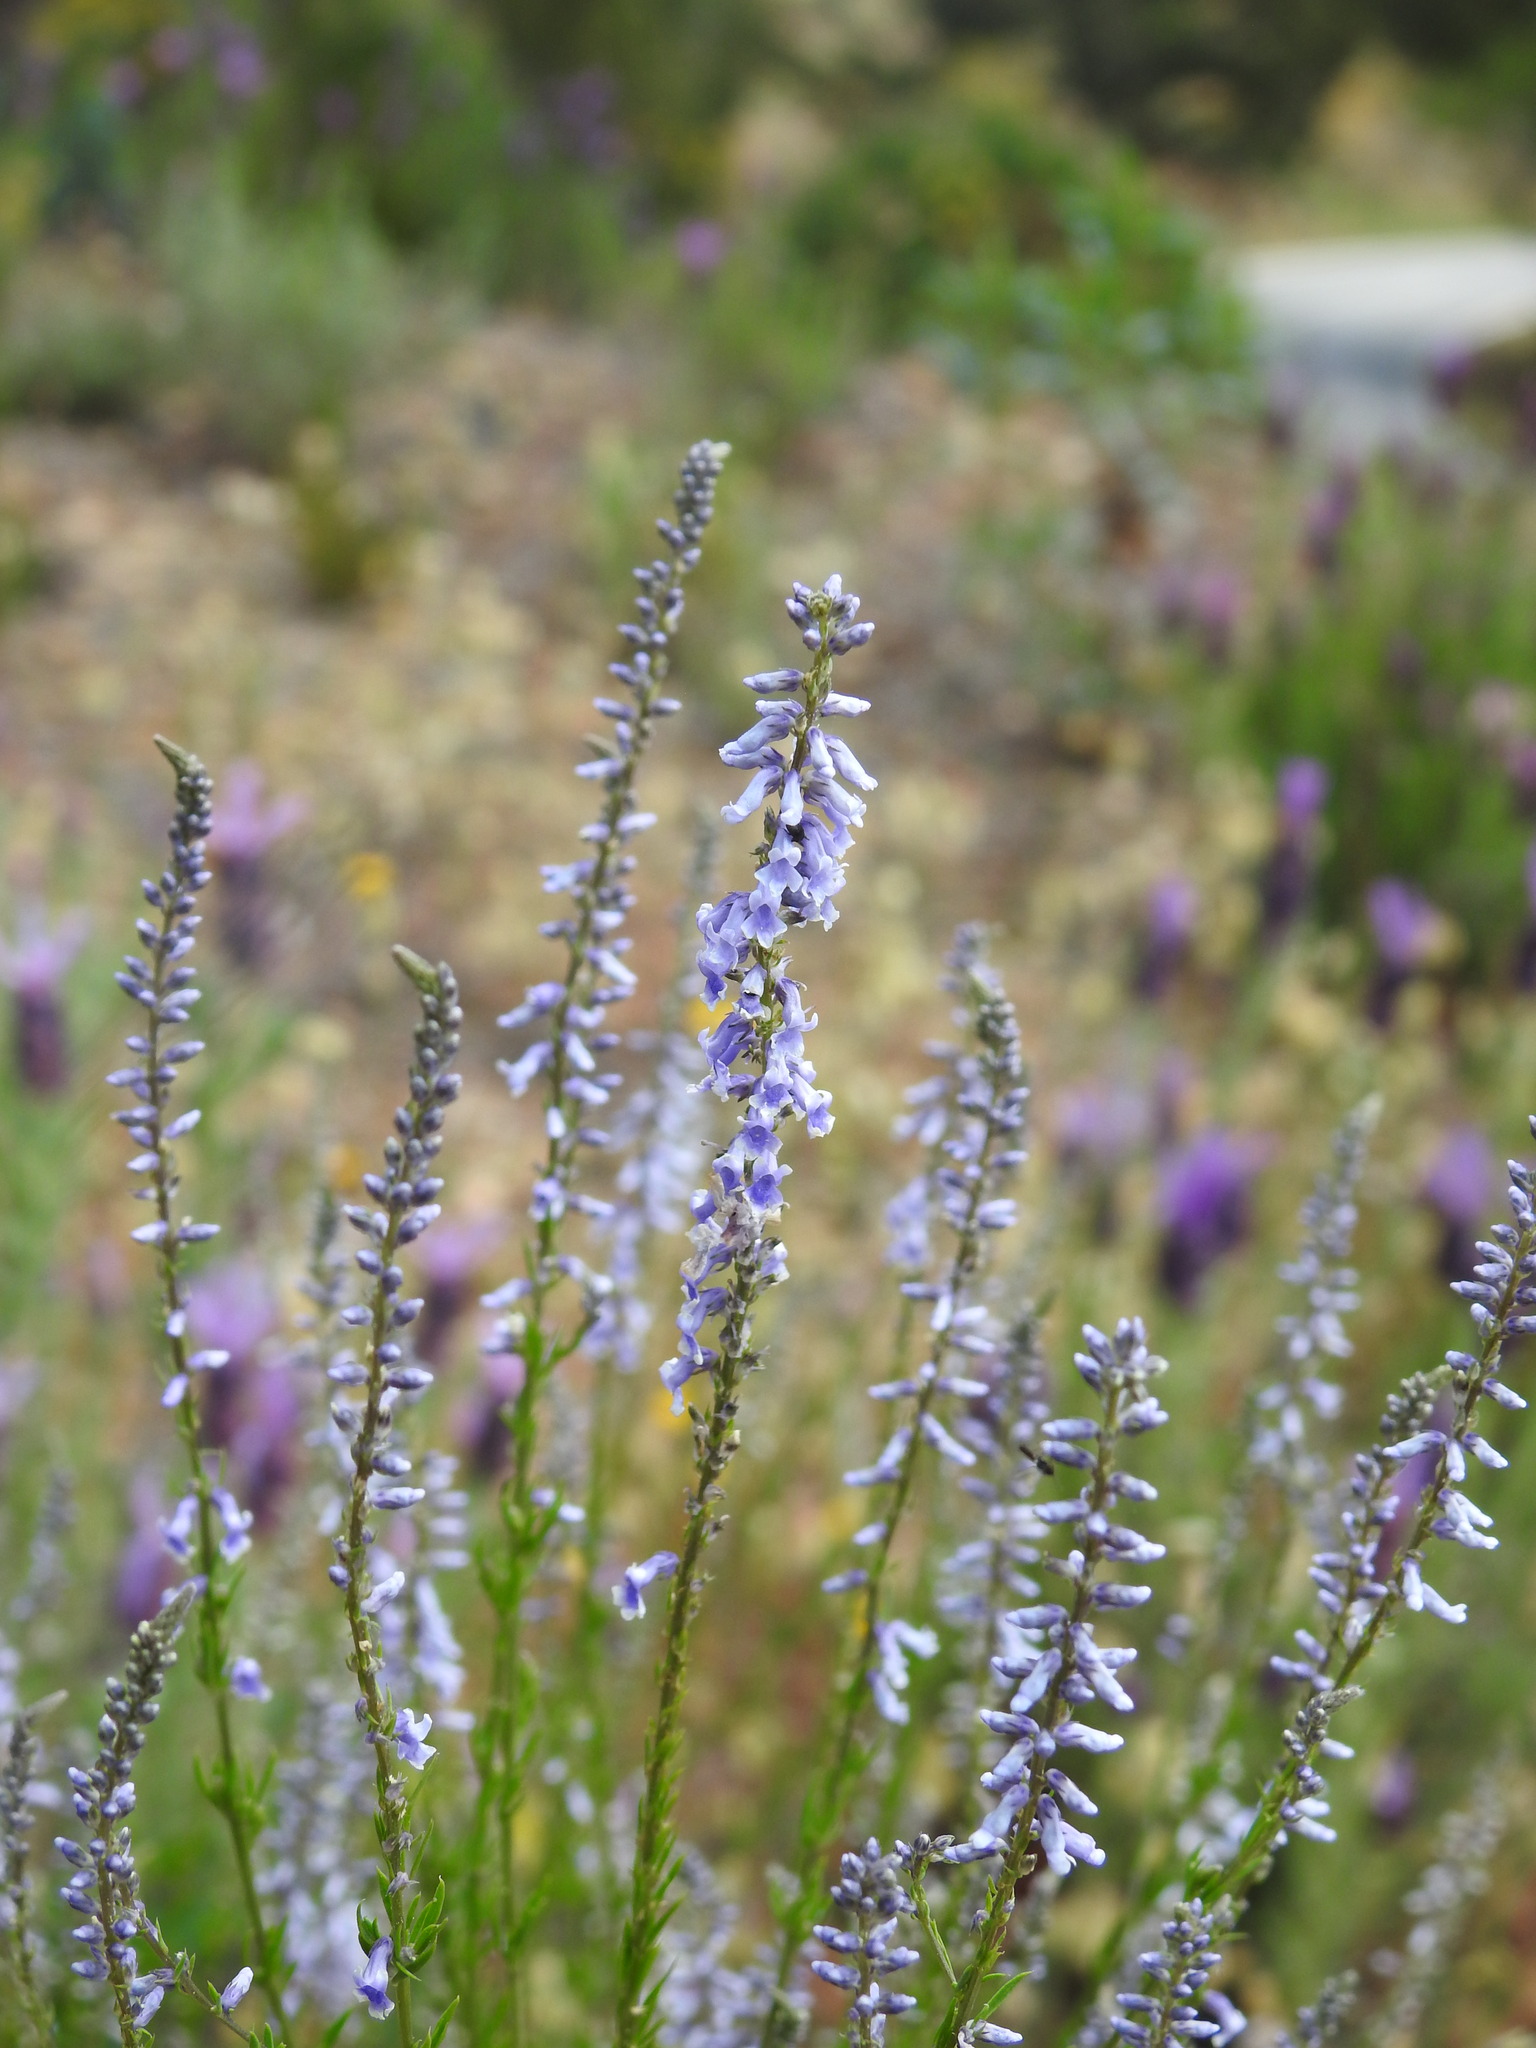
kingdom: Plantae
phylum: Tracheophyta
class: Magnoliopsida
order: Lamiales
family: Plantaginaceae
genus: Anarrhinum
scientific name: Anarrhinum bellidifolium
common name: Daisy-leaved toadflax
